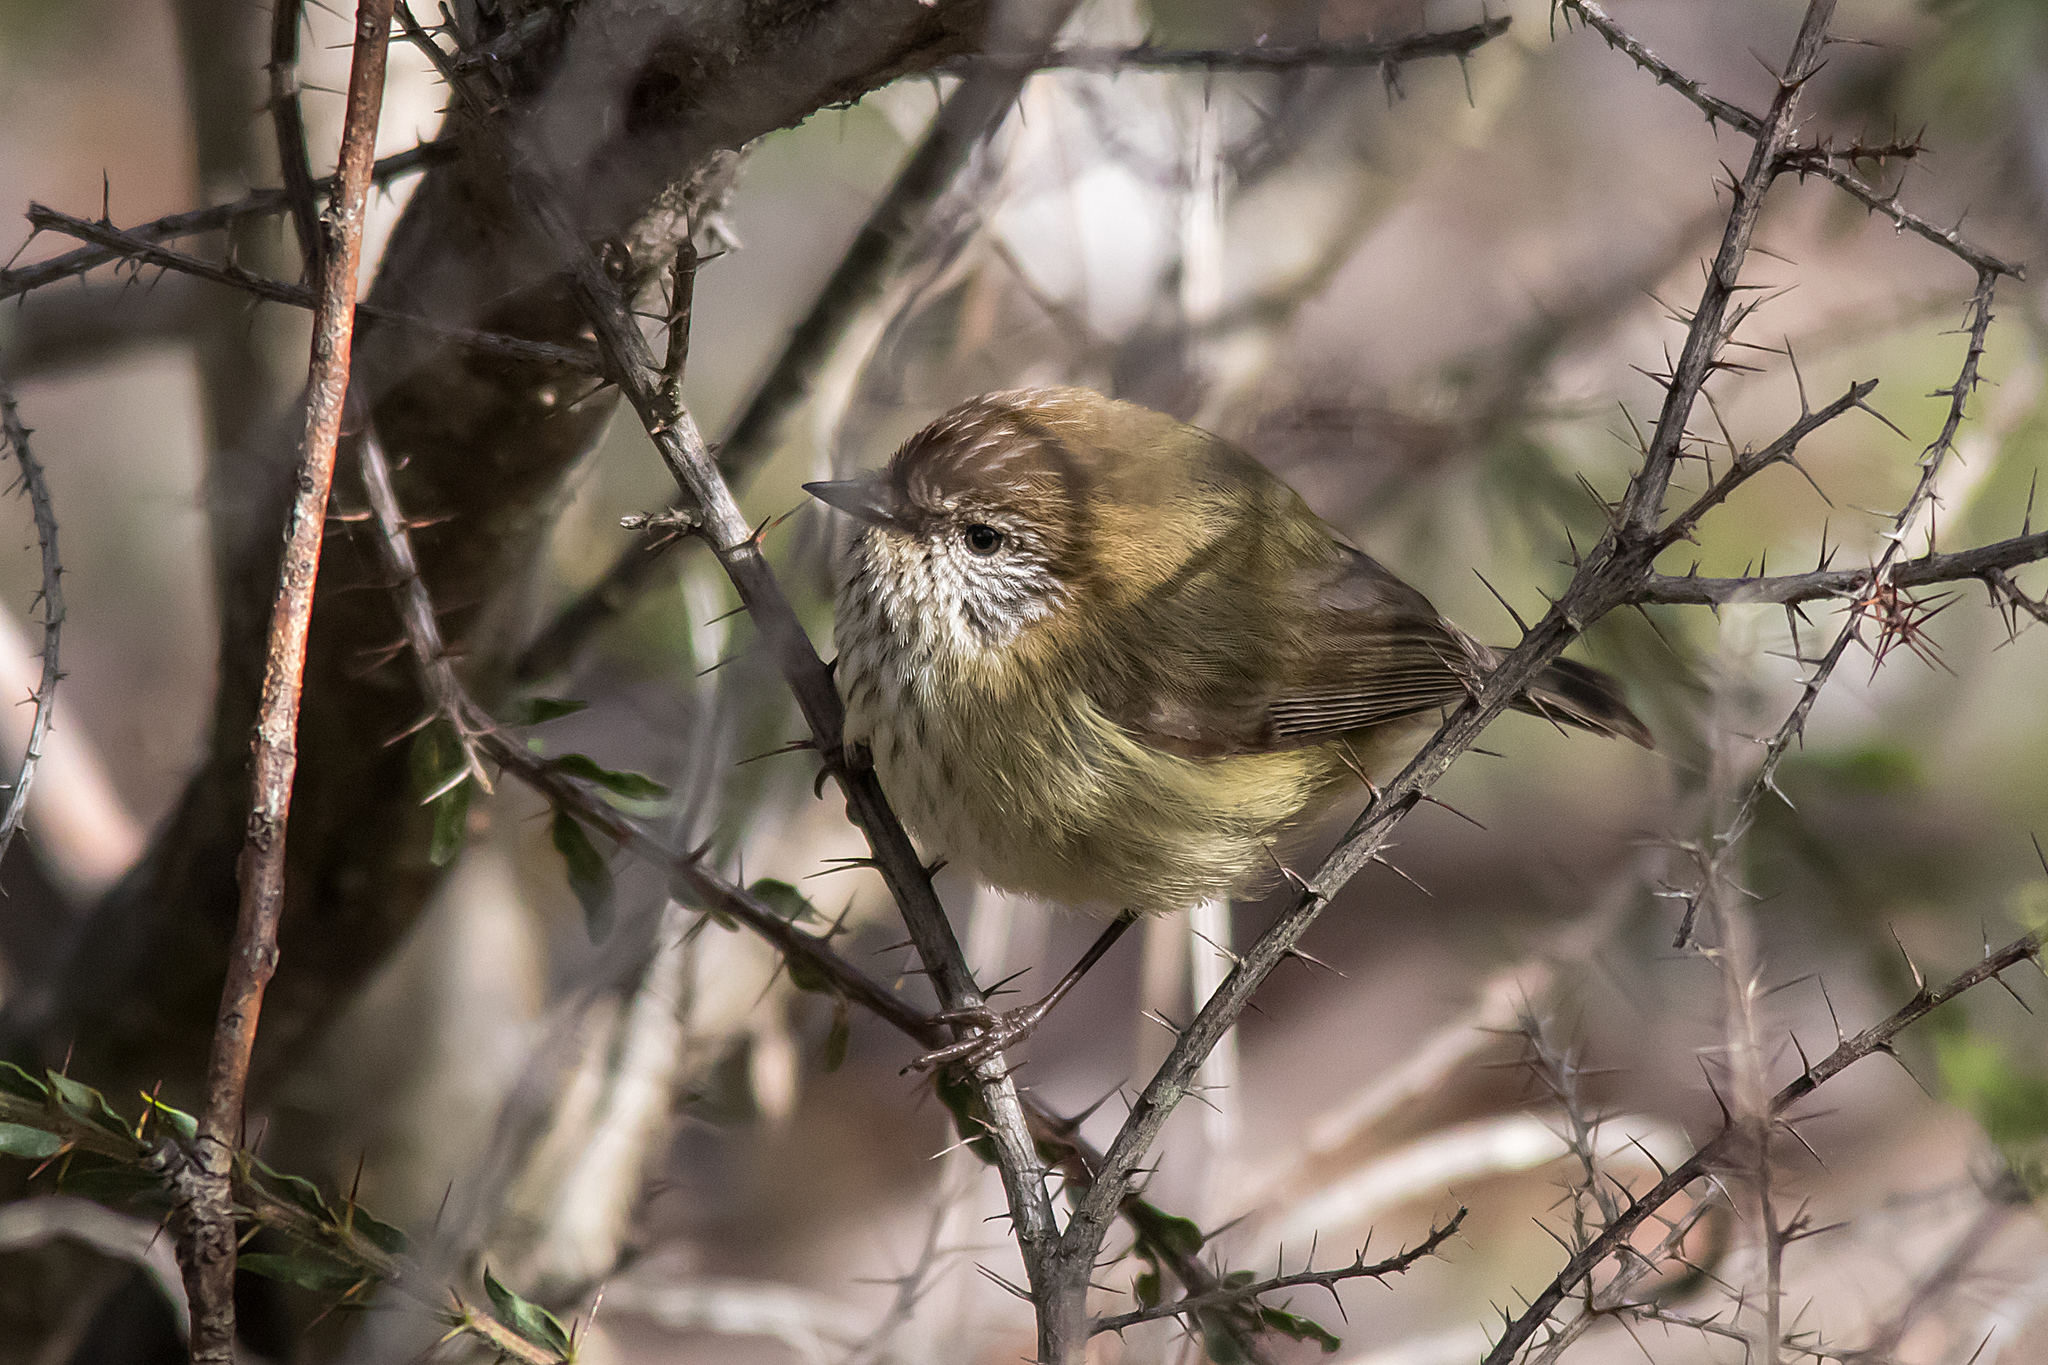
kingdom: Animalia
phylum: Chordata
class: Aves
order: Passeriformes
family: Acanthizidae
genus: Acanthiza
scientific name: Acanthiza lineata
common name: Striated thornbill
